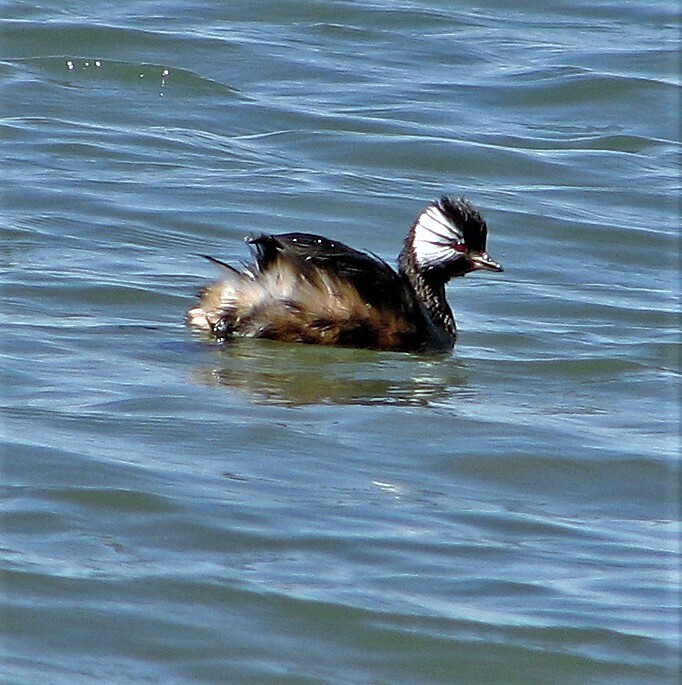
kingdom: Animalia
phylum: Chordata
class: Aves
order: Podicipediformes
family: Podicipedidae
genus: Rollandia
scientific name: Rollandia rolland
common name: White-tufted grebe
